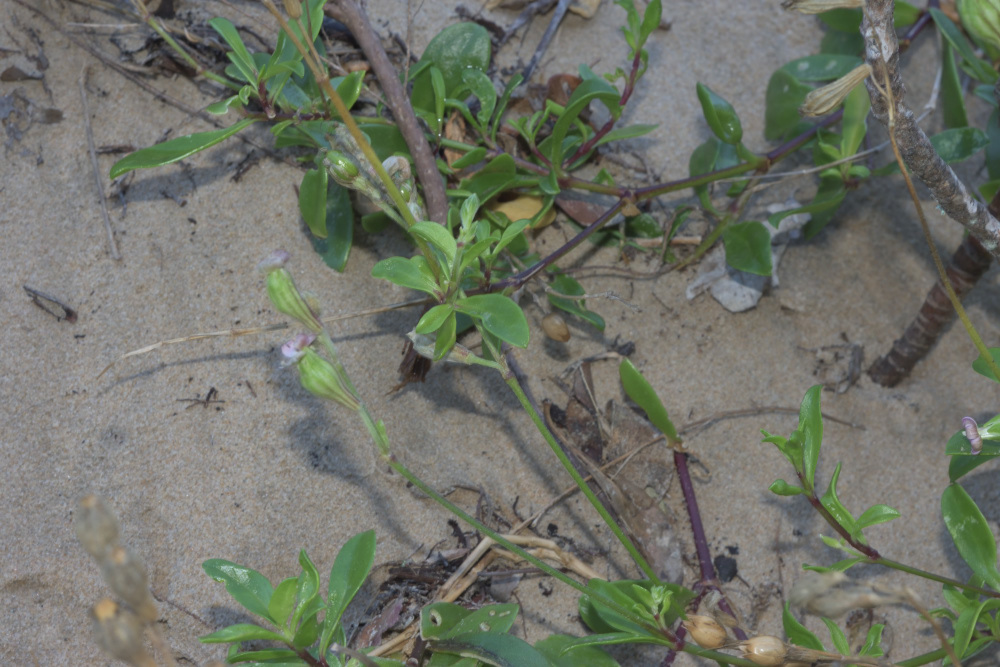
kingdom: Plantae
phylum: Tracheophyta
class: Magnoliopsida
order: Caryophyllales
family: Caryophyllaceae
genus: Silene
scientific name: Silene crassifolia
